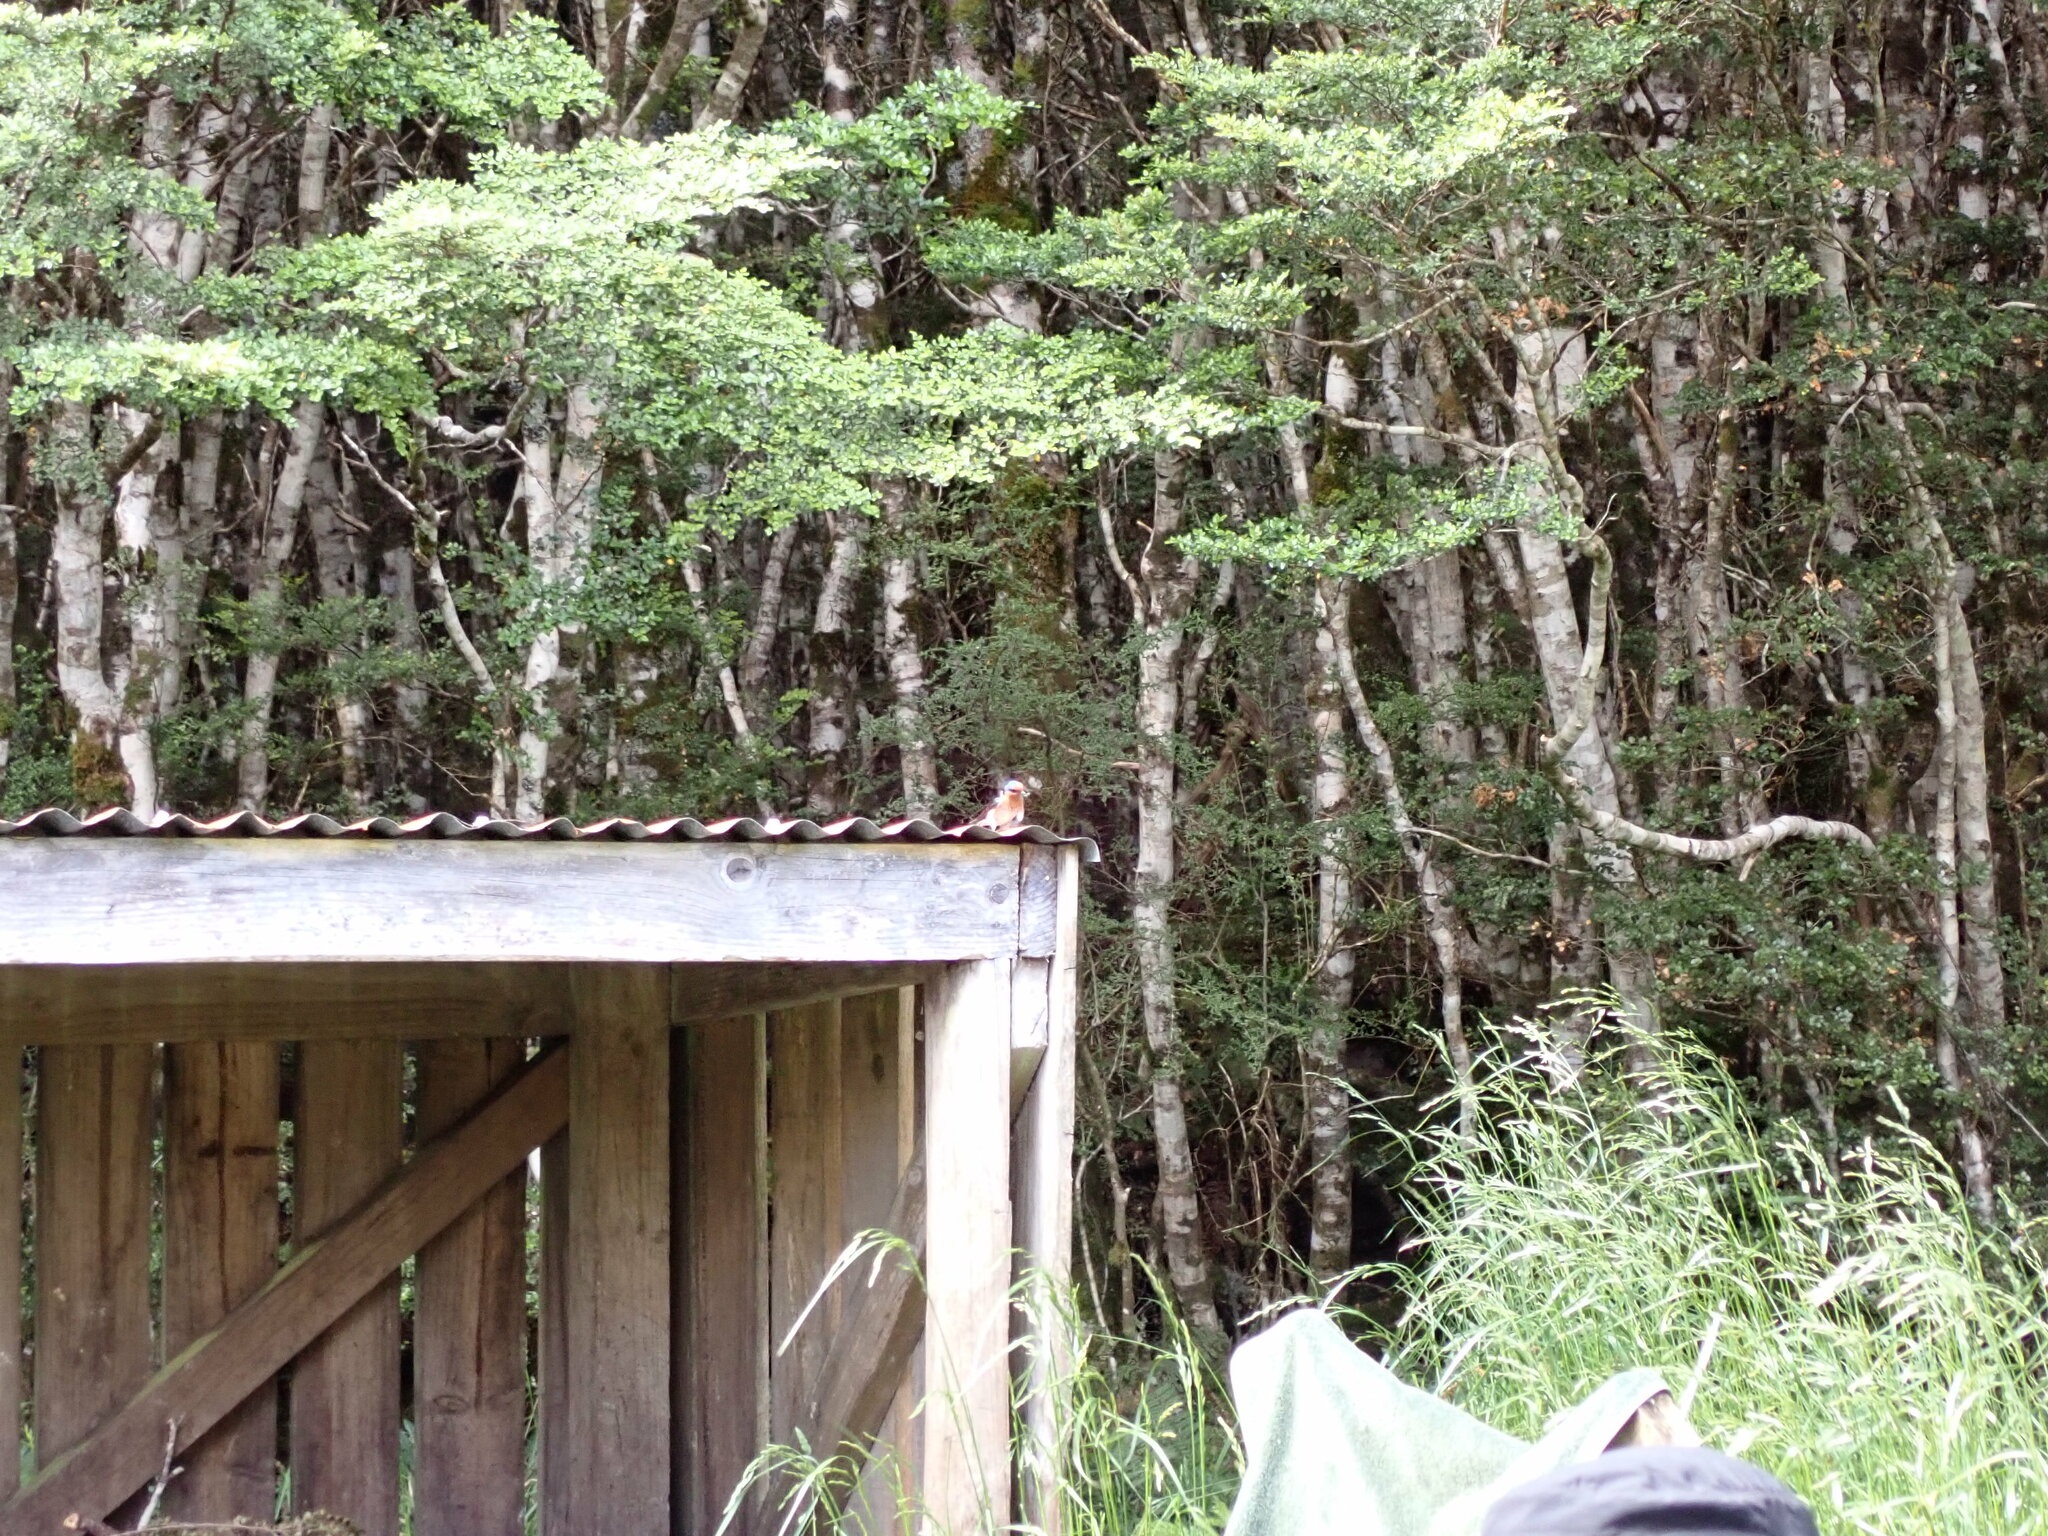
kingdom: Animalia
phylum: Chordata
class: Aves
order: Passeriformes
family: Fringillidae
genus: Fringilla
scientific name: Fringilla coelebs
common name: Common chaffinch
